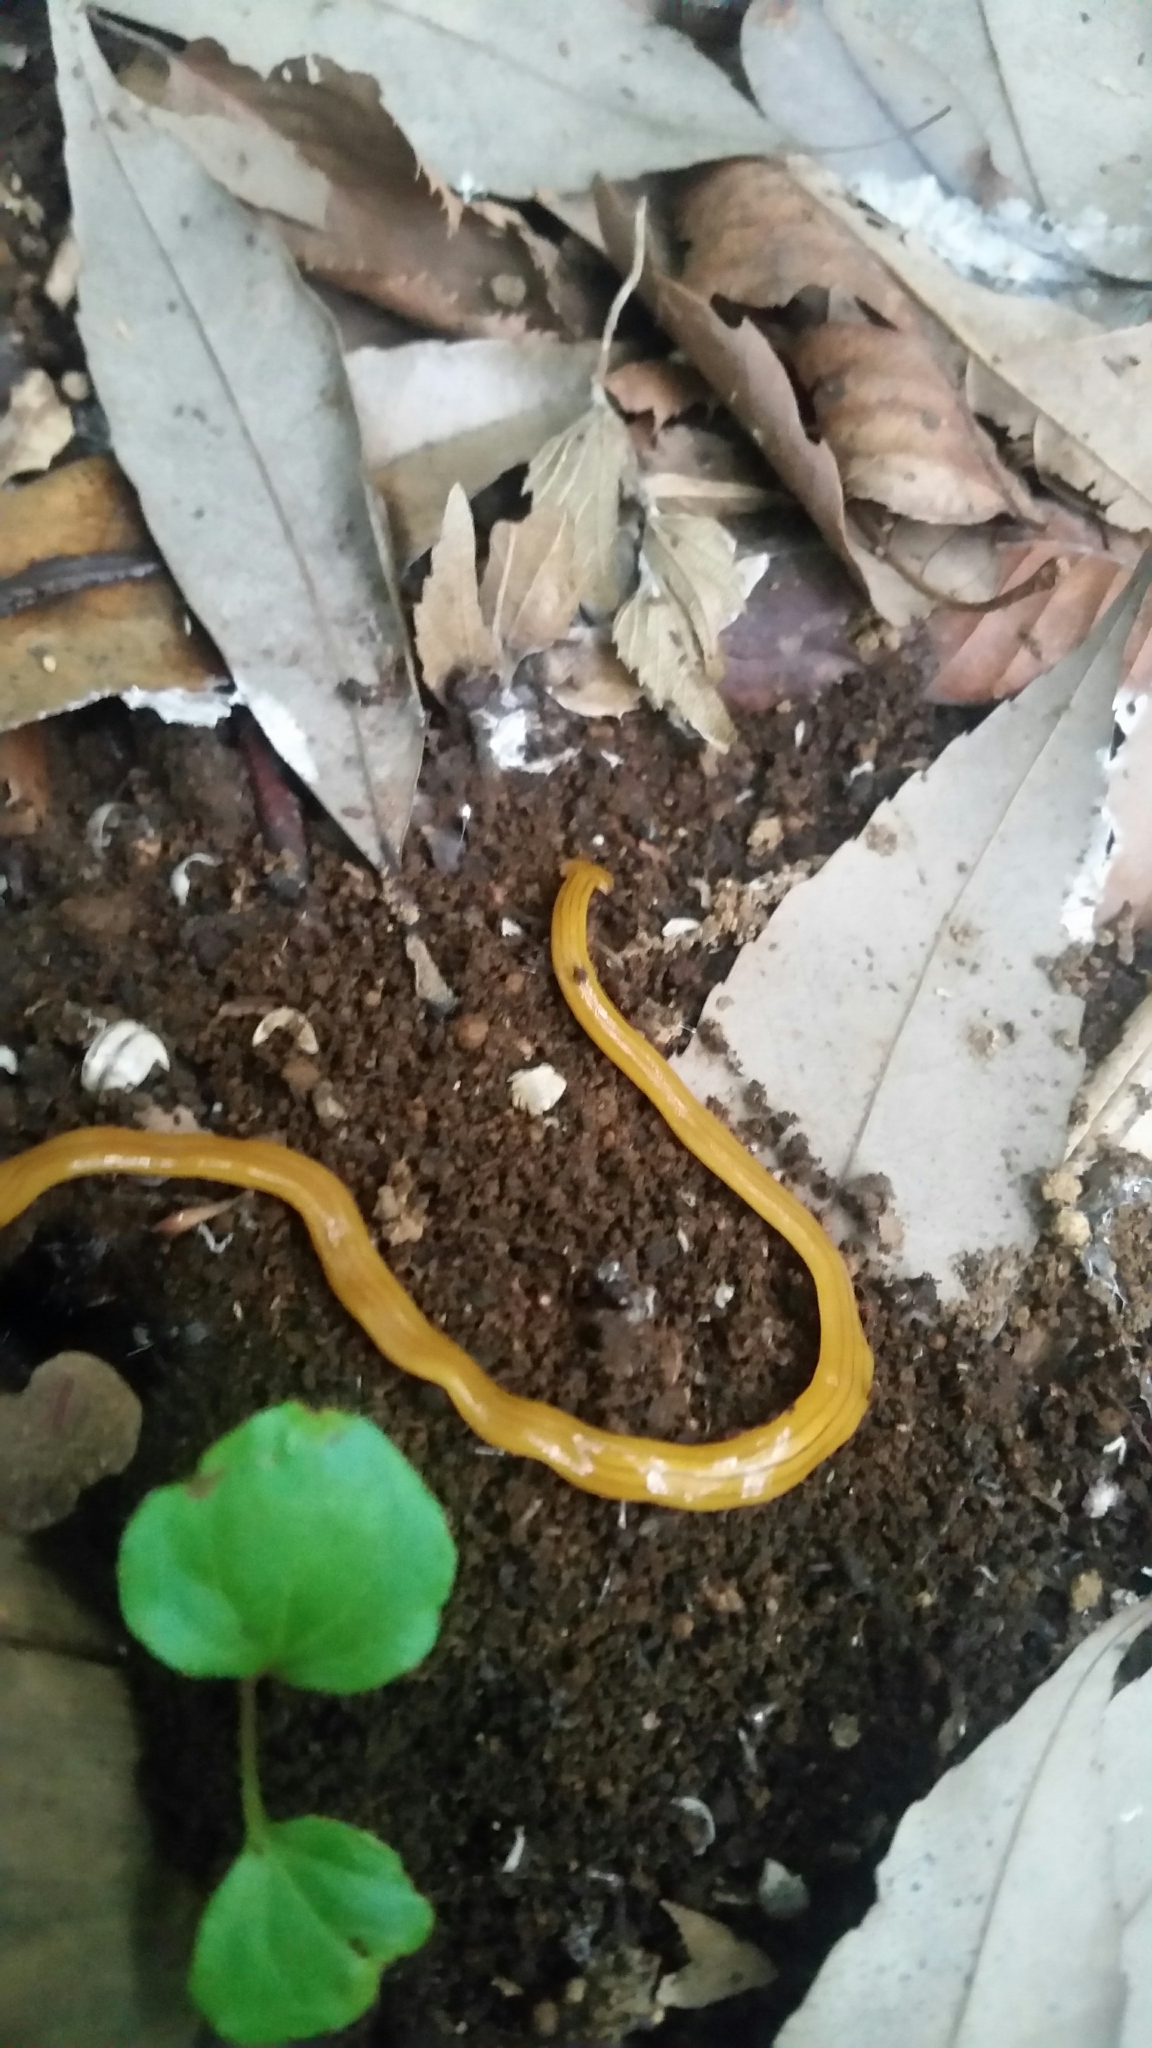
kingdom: Animalia
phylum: Platyhelminthes
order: Tricladida
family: Geoplanidae
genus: Bipalium
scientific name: Bipalium nobile
